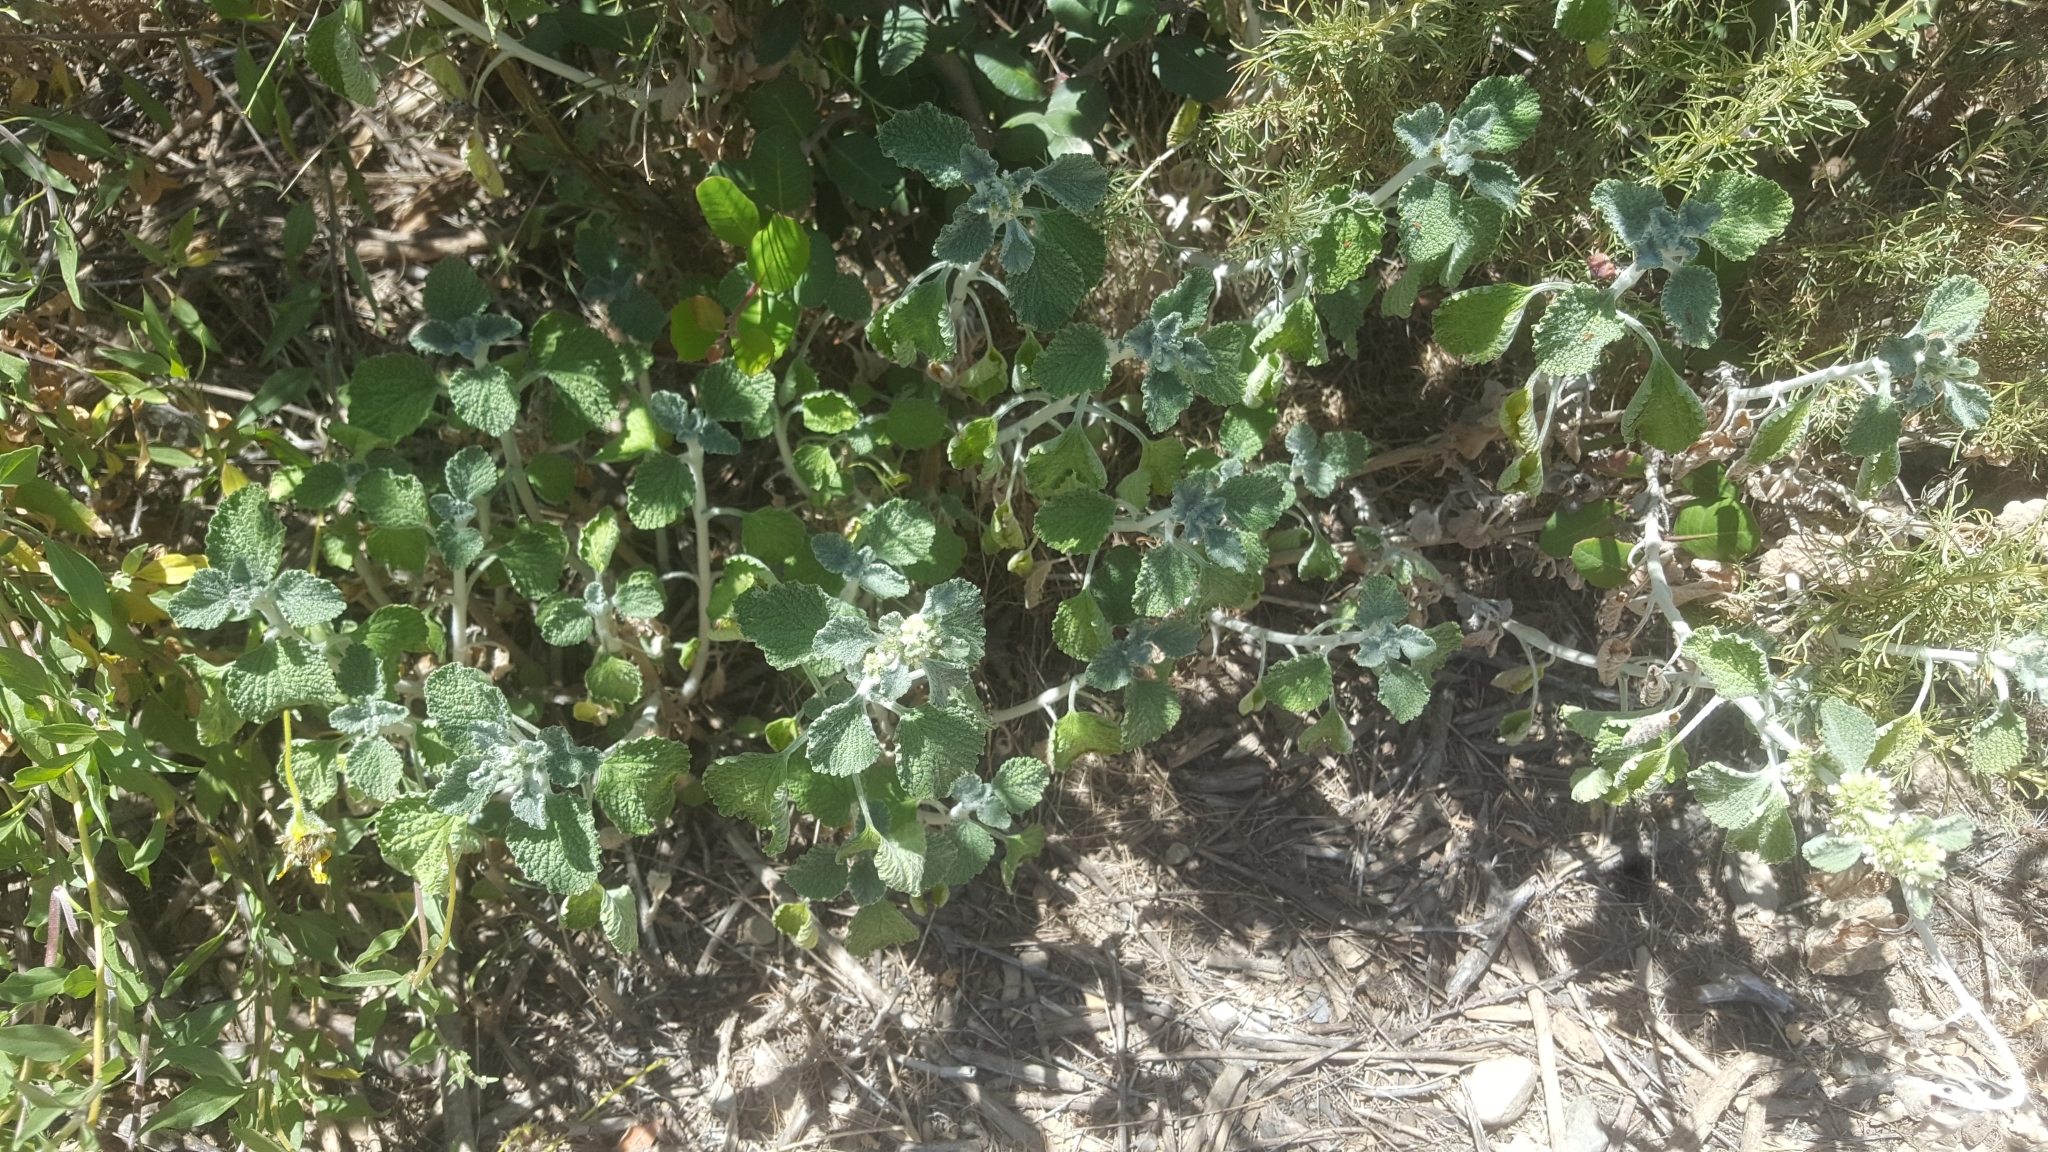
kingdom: Plantae
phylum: Tracheophyta
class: Magnoliopsida
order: Lamiales
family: Lamiaceae
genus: Marrubium
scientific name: Marrubium vulgare
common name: Horehound
